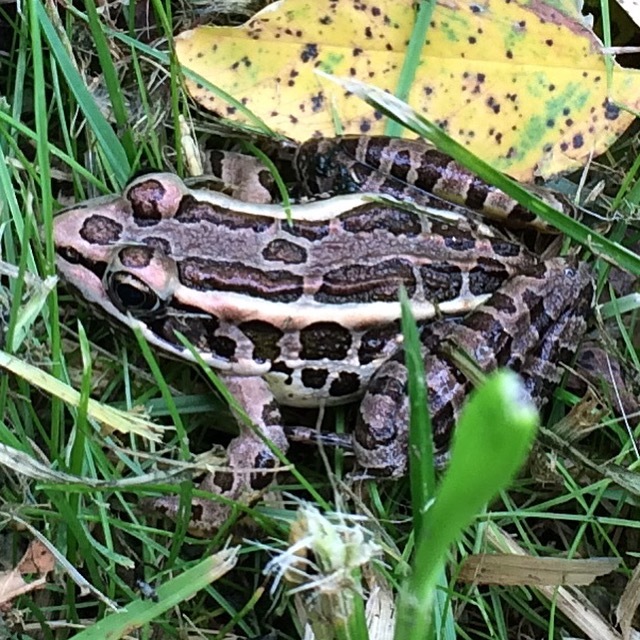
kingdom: Animalia
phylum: Chordata
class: Amphibia
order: Anura
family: Ranidae
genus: Lithobates
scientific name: Lithobates palustris
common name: Pickerel frog
